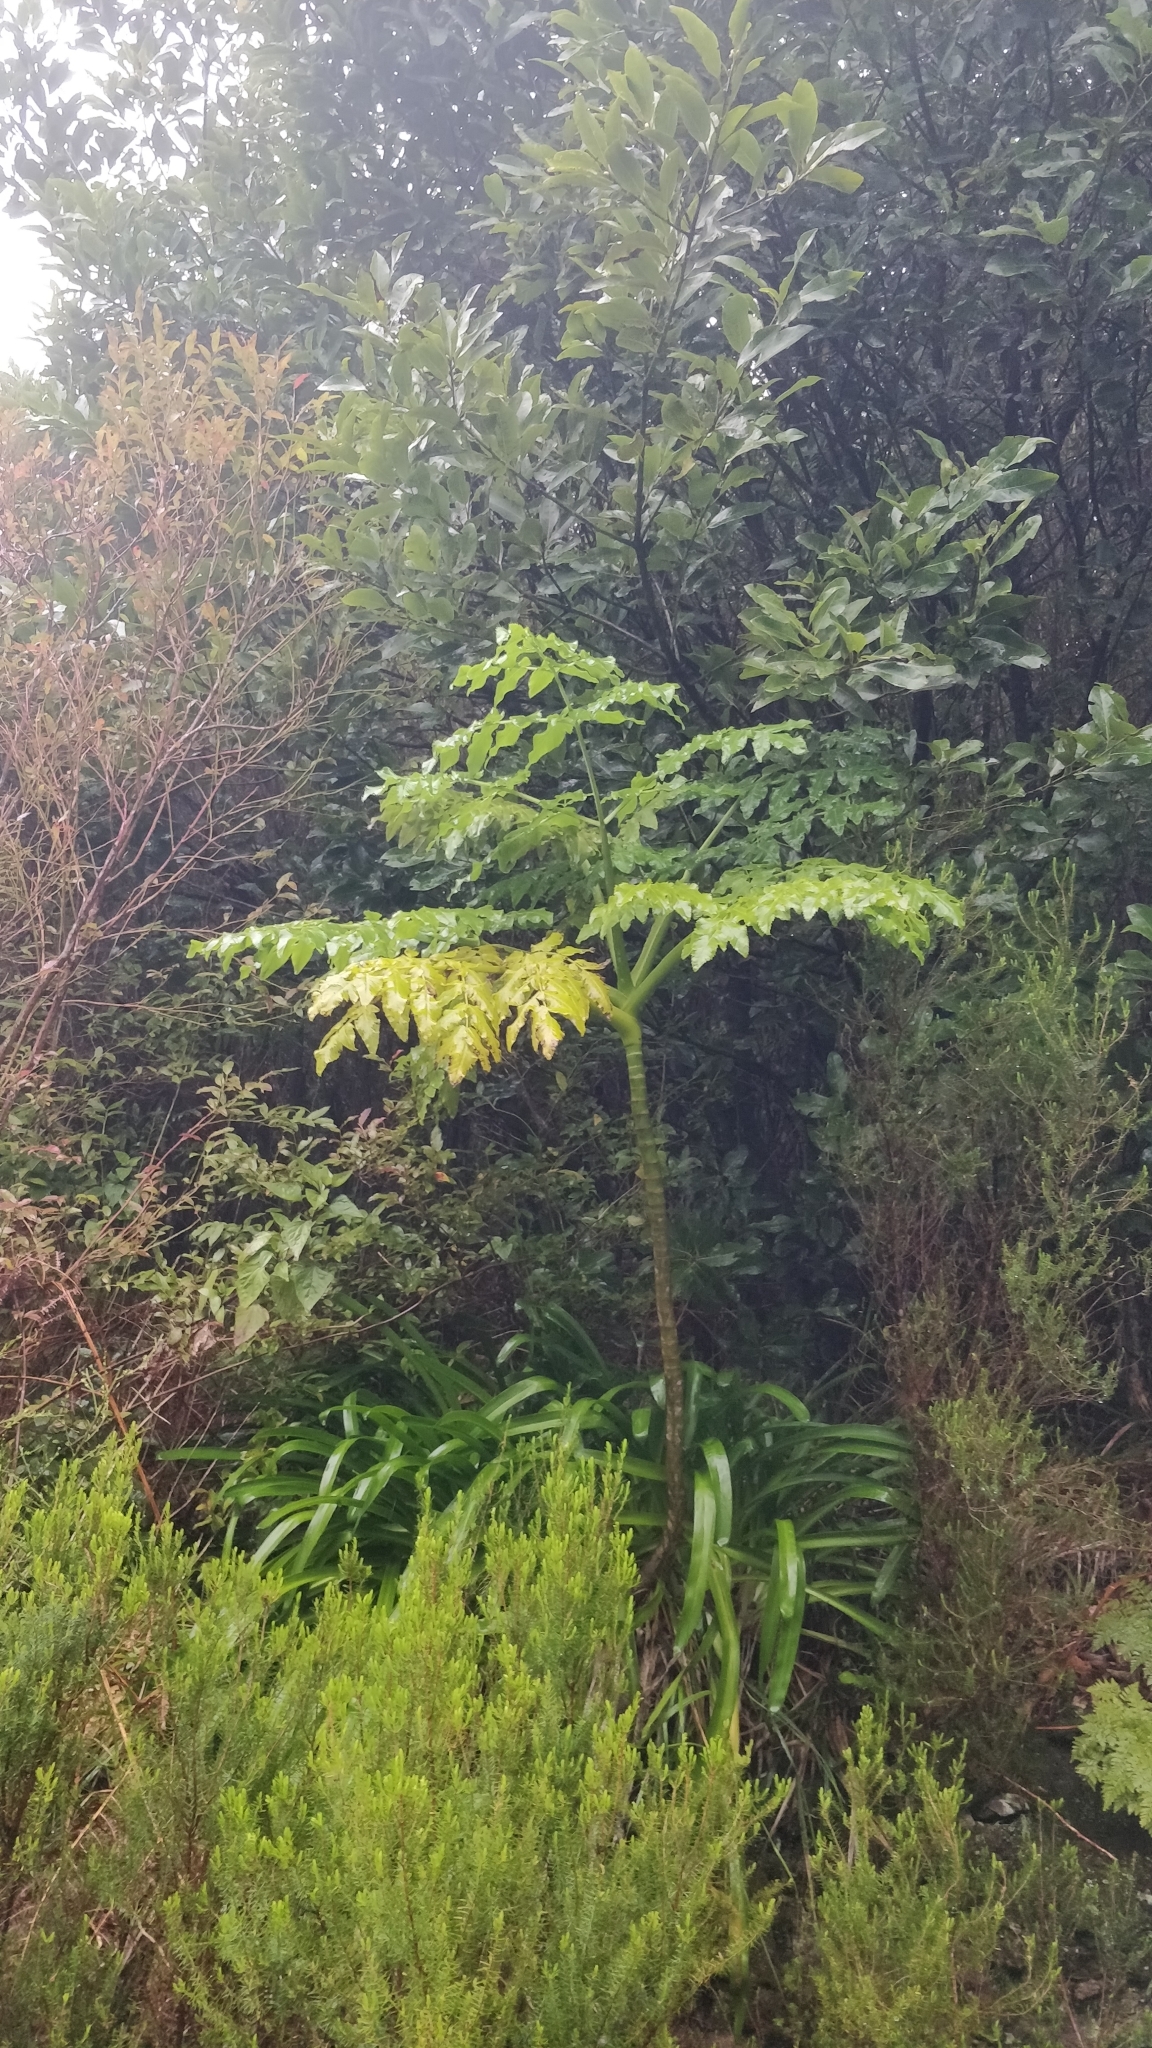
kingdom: Plantae
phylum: Tracheophyta
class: Magnoliopsida
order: Apiales
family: Apiaceae
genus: Daucus
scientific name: Daucus decipiens
